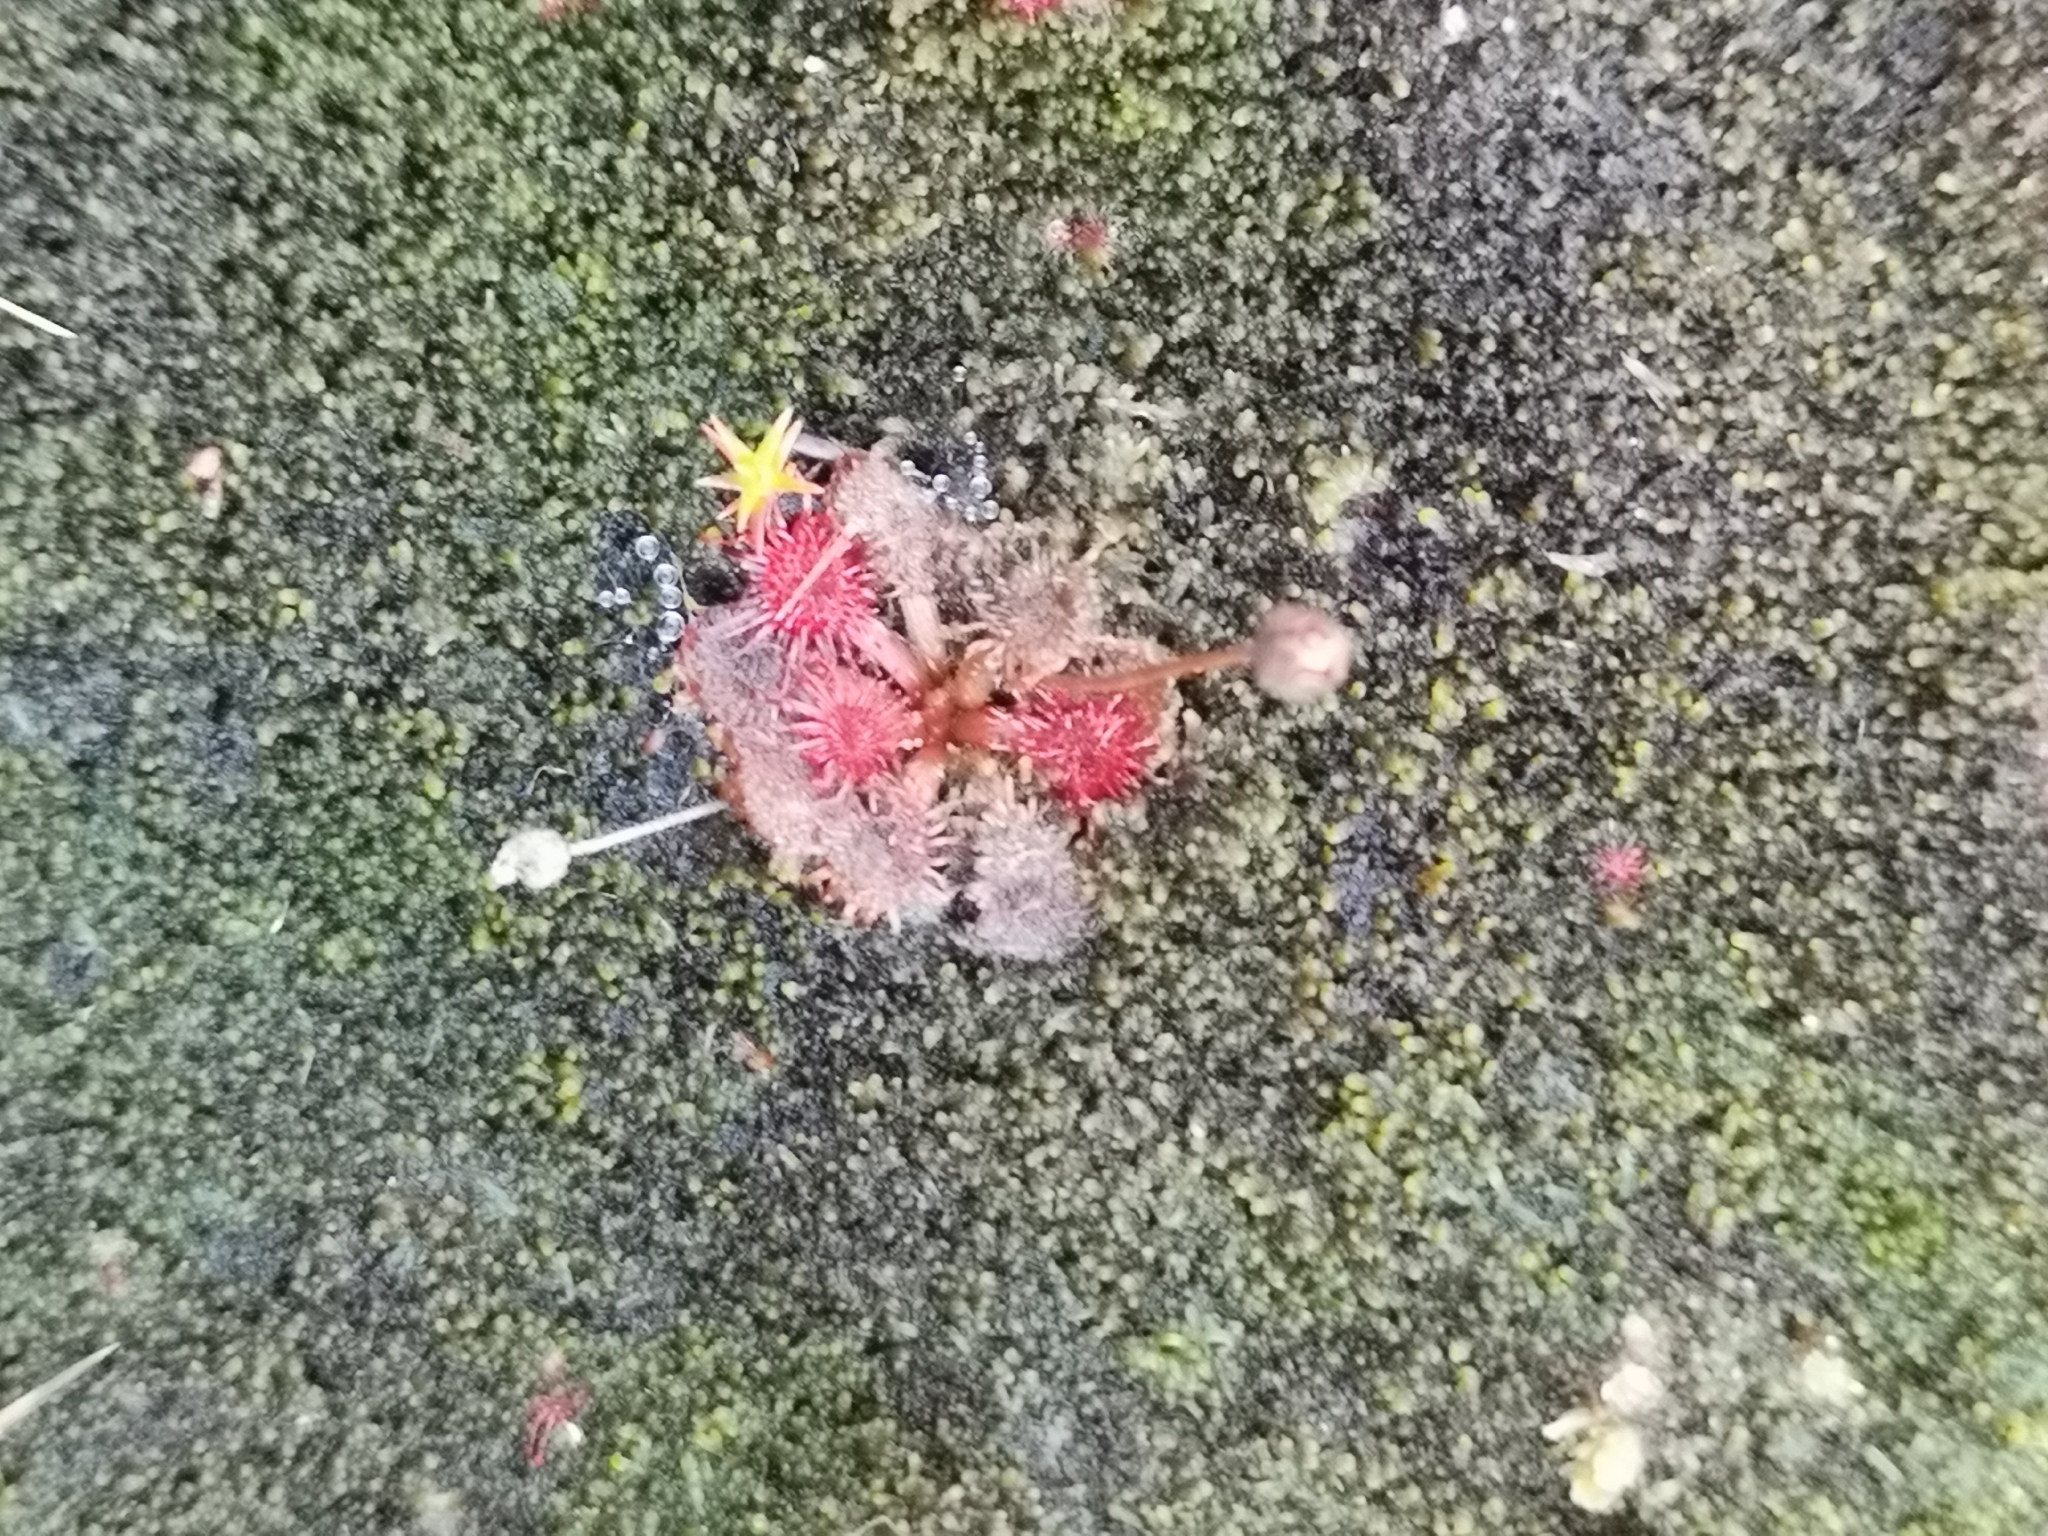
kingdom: Plantae
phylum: Tracheophyta
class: Magnoliopsida
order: Caryophyllales
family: Droseraceae
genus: Drosera
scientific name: Drosera spatulata
